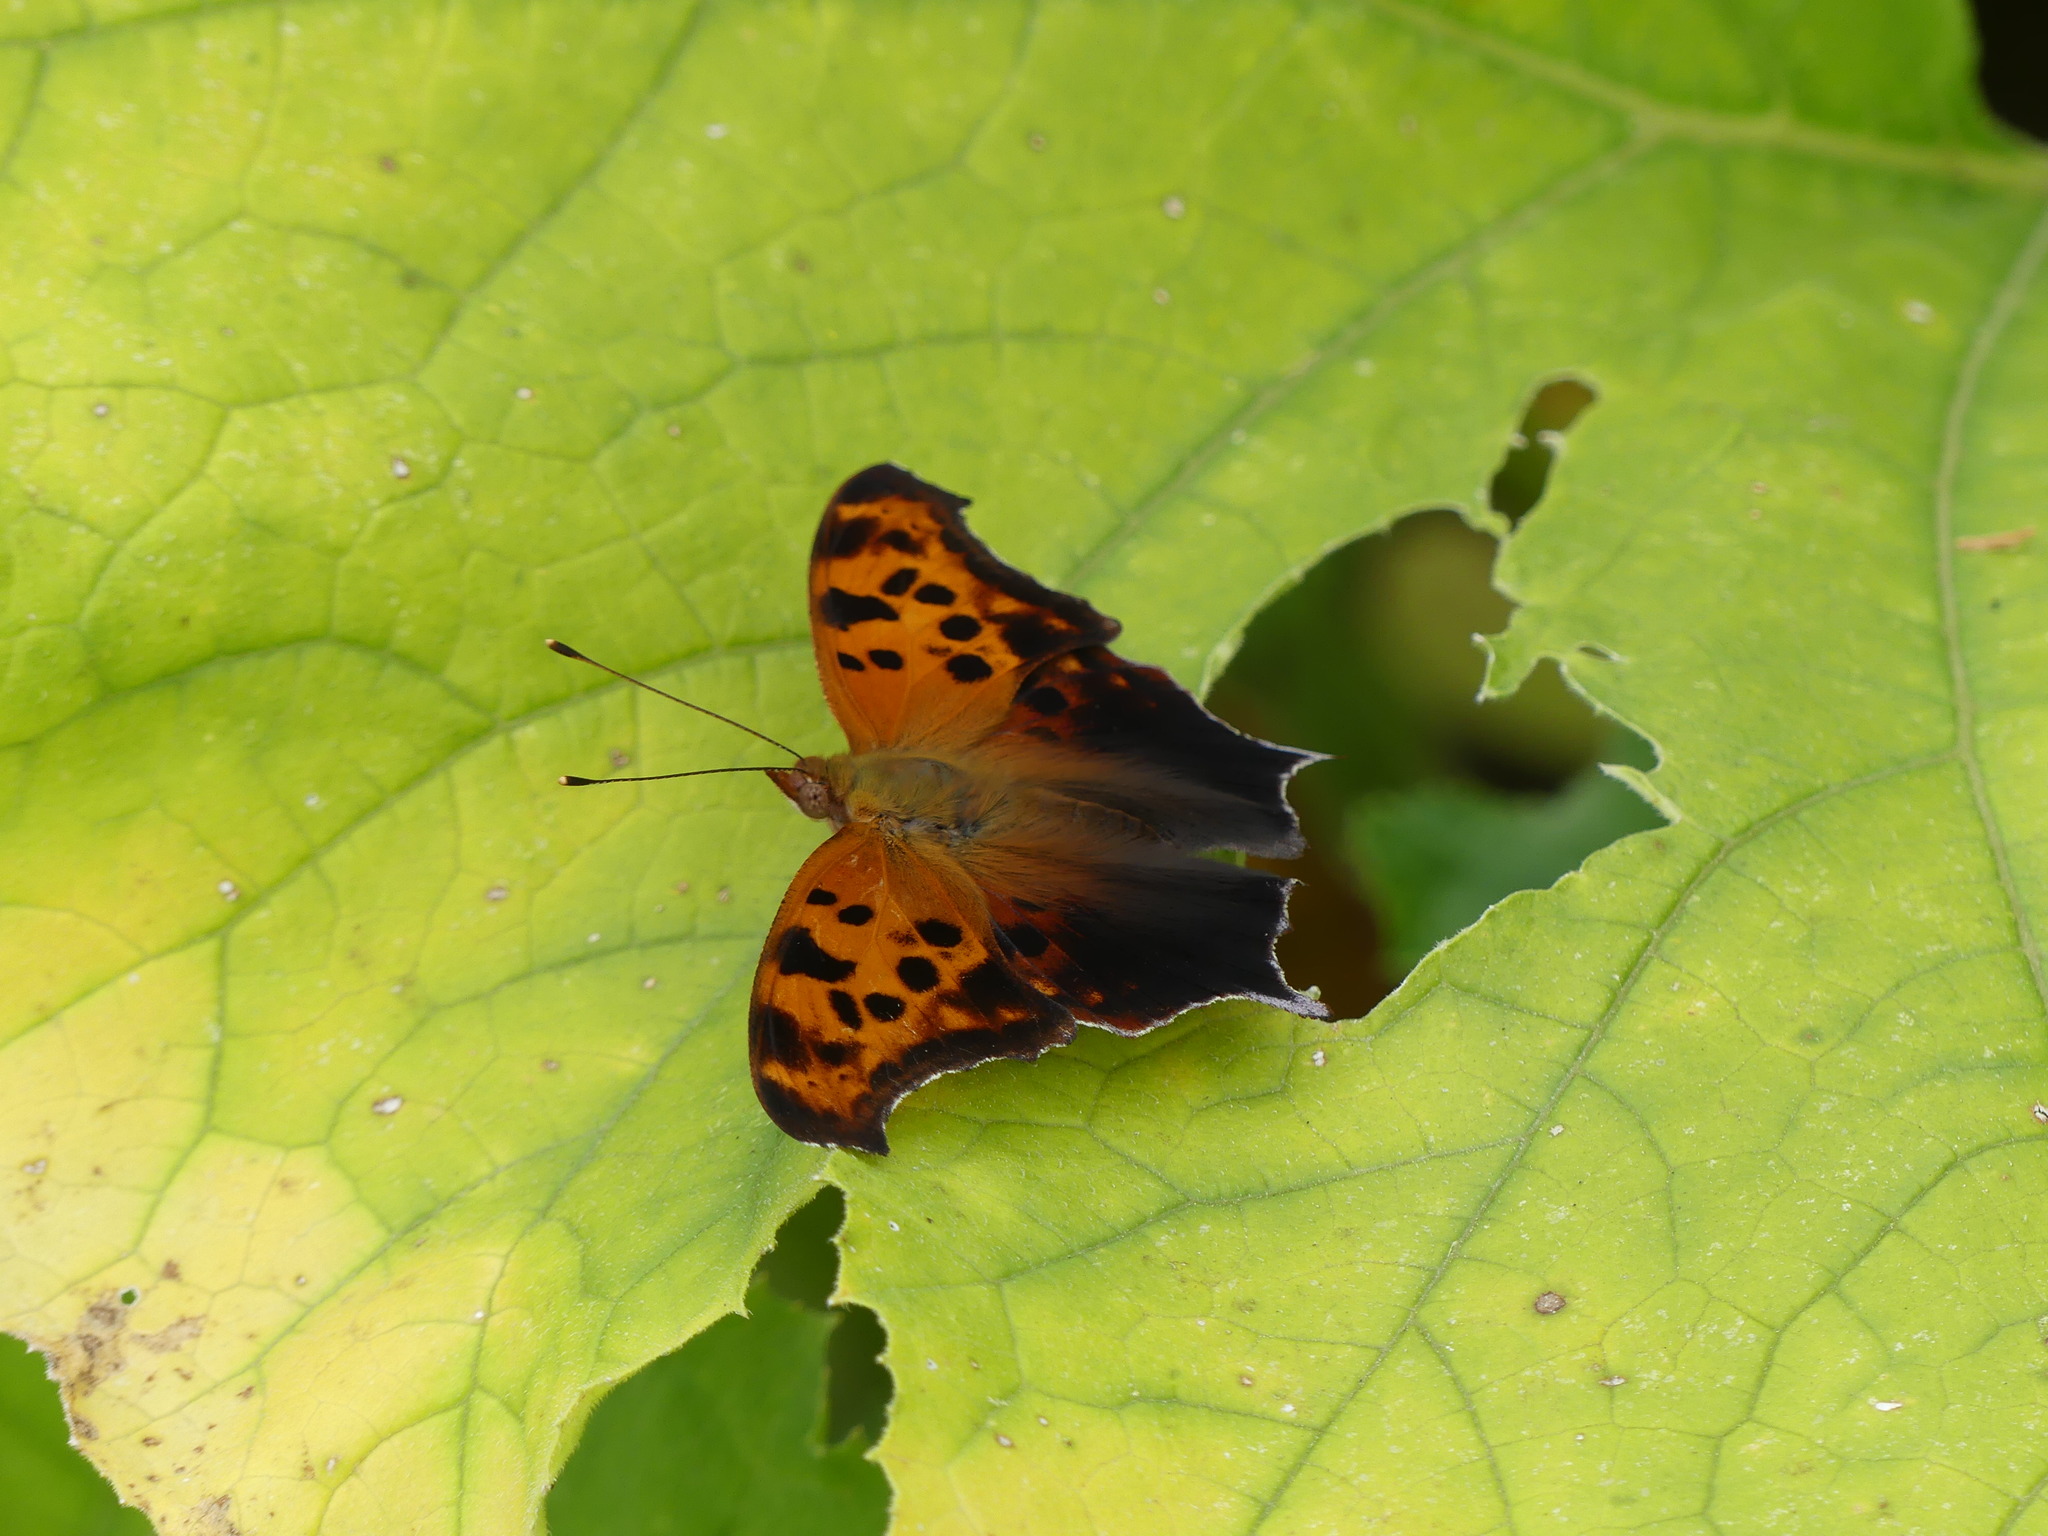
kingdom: Animalia
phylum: Arthropoda
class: Insecta
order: Lepidoptera
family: Nymphalidae
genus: Polygonia
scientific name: Polygonia interrogationis
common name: Question mark
